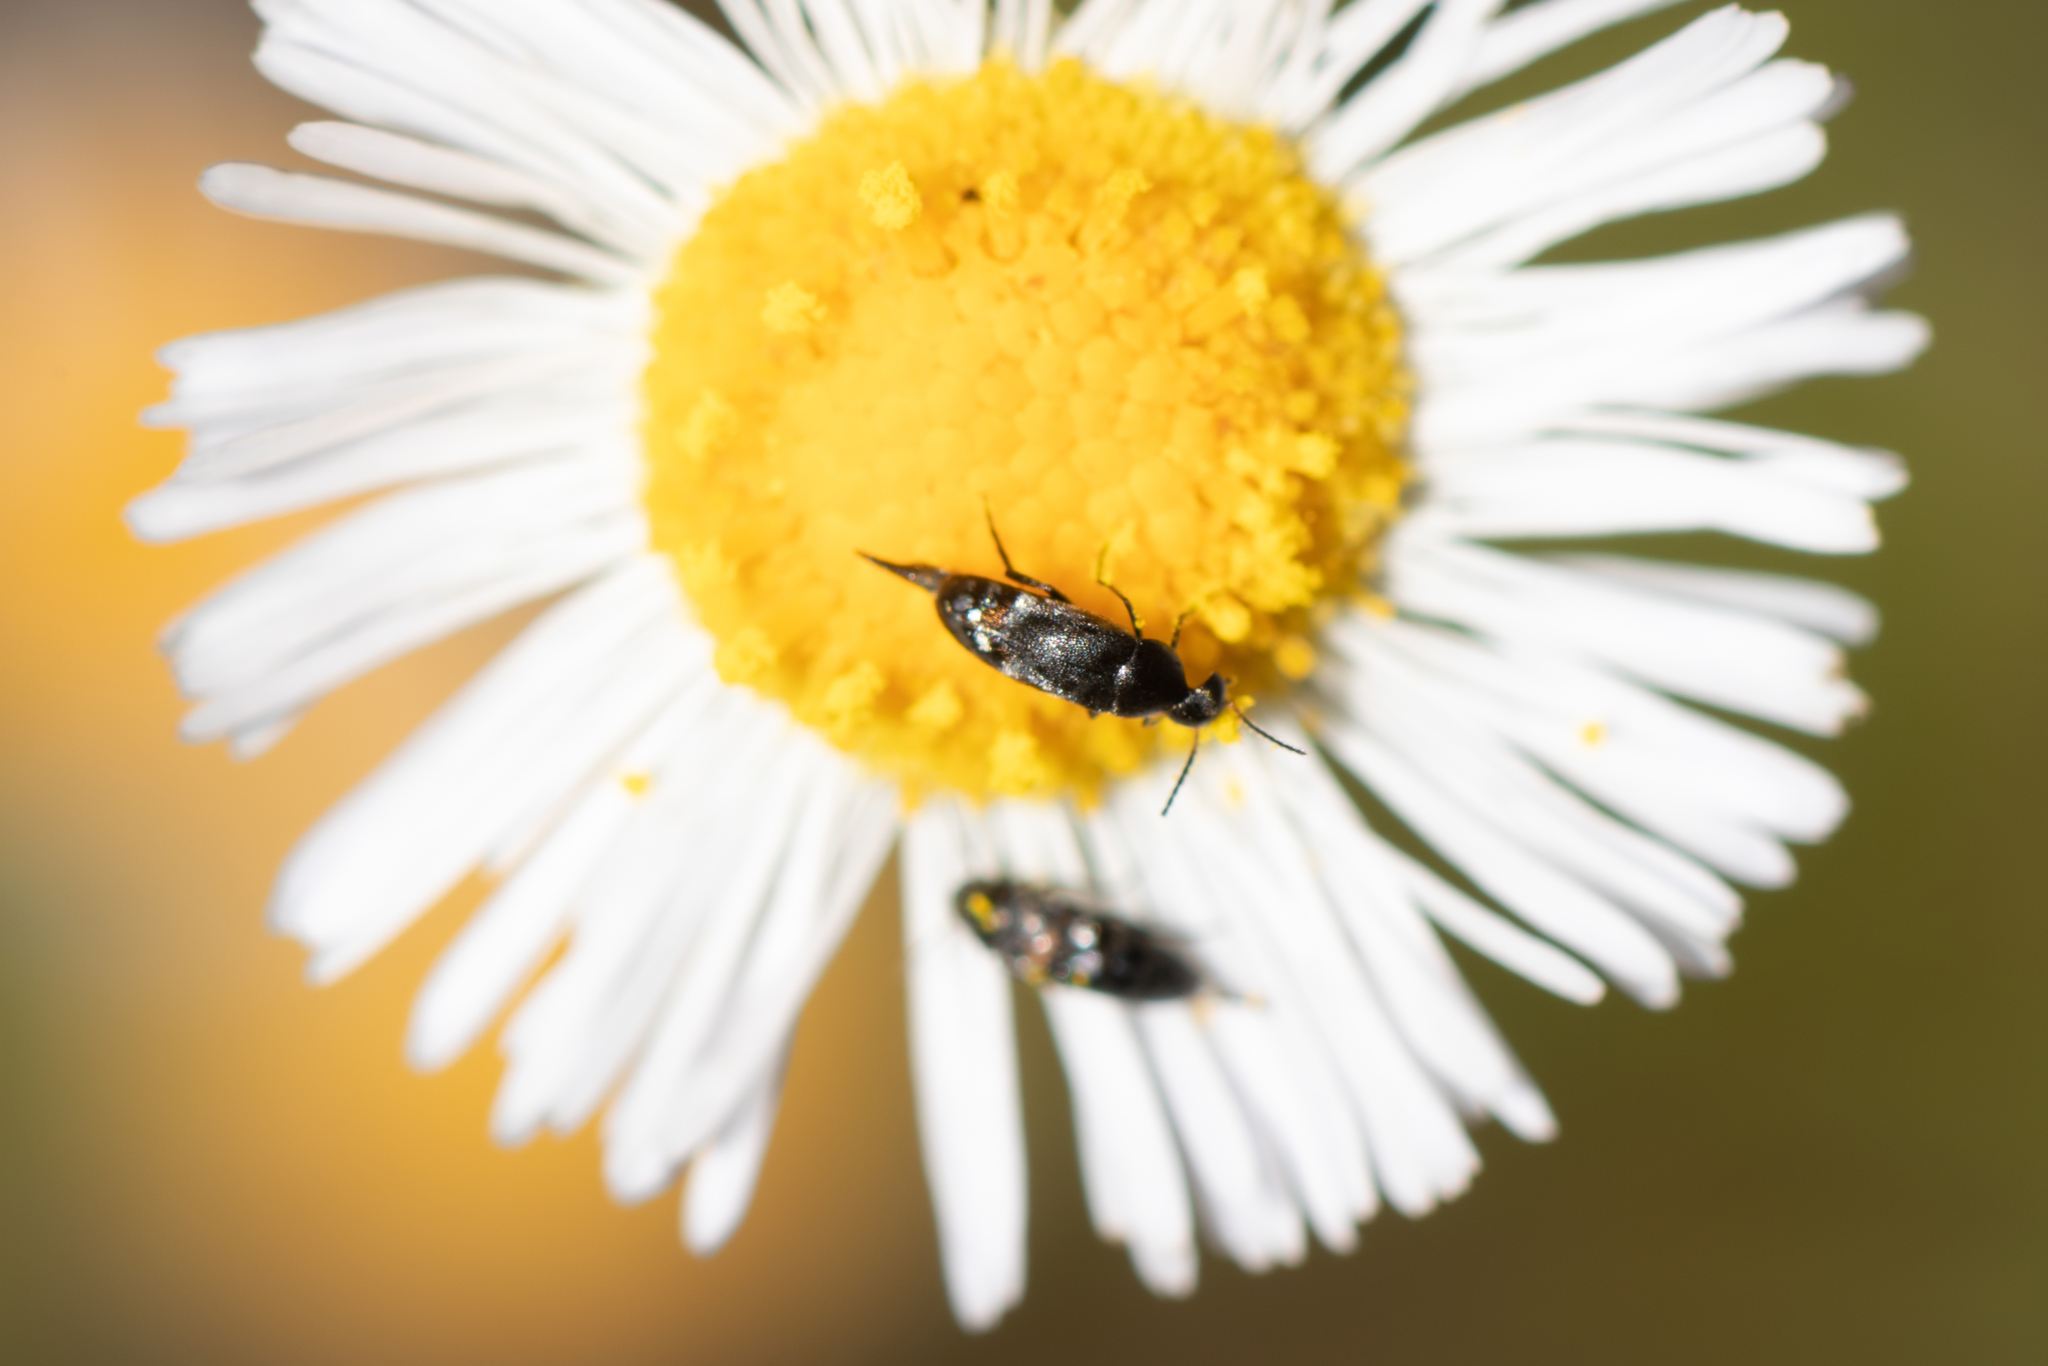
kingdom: Animalia
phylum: Arthropoda
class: Insecta
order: Coleoptera
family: Mordellidae
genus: Mordellina
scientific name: Mordellina pustulata
